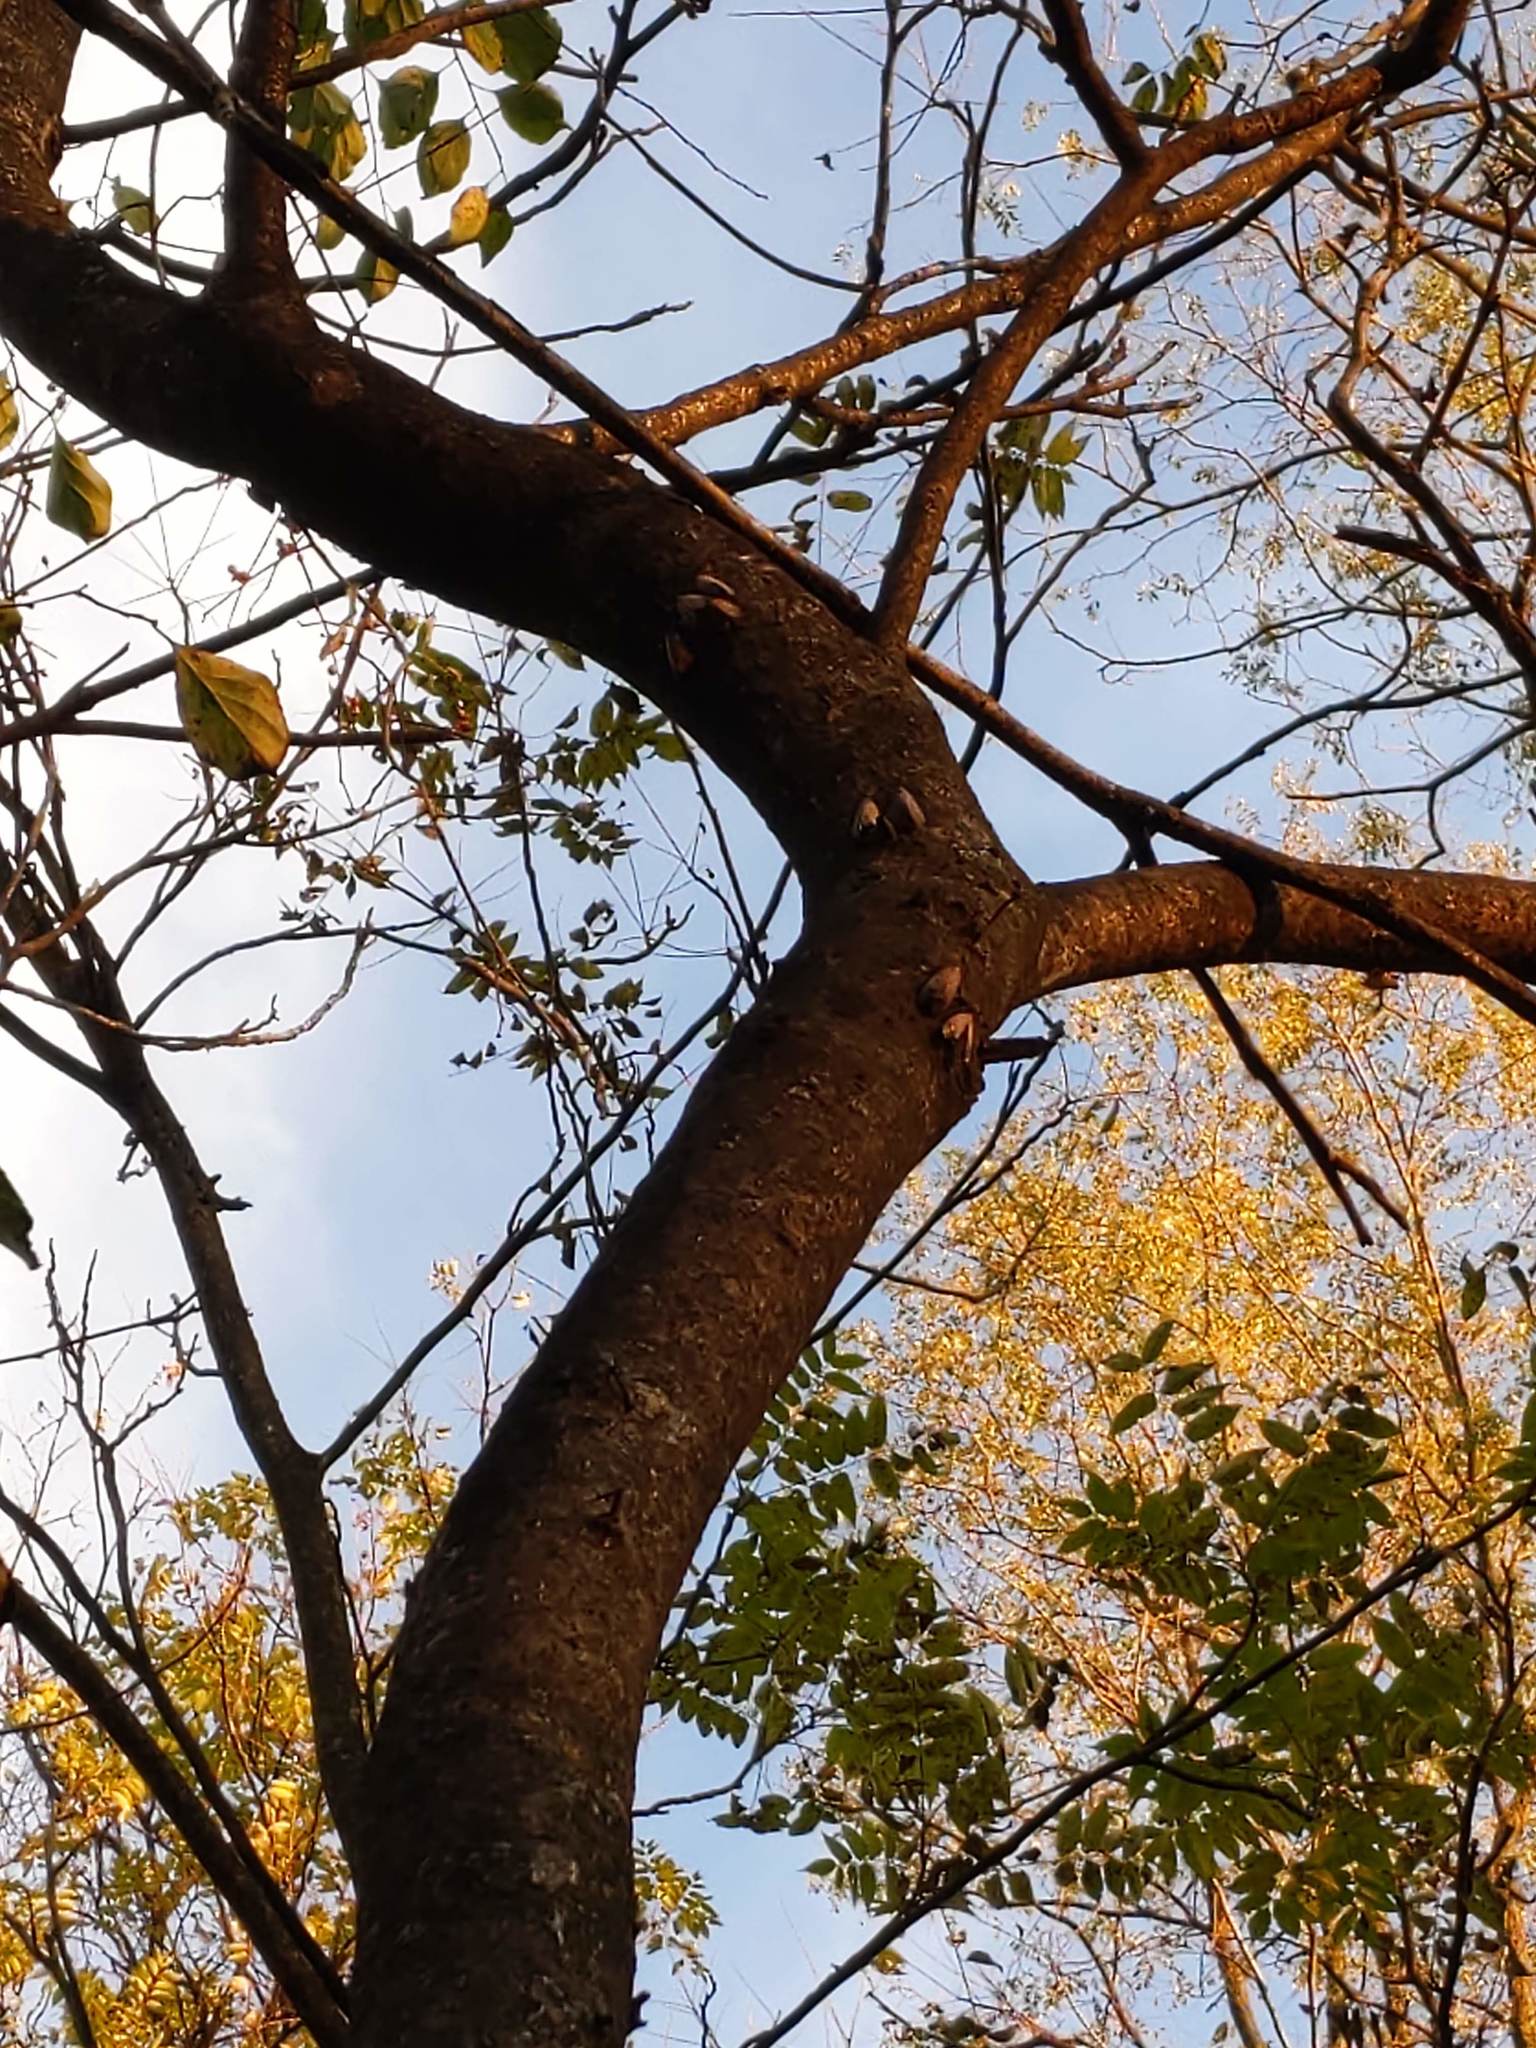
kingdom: Plantae
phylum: Tracheophyta
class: Magnoliopsida
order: Sapindales
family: Simaroubaceae
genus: Ailanthus
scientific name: Ailanthus altissima
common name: Tree-of-heaven
